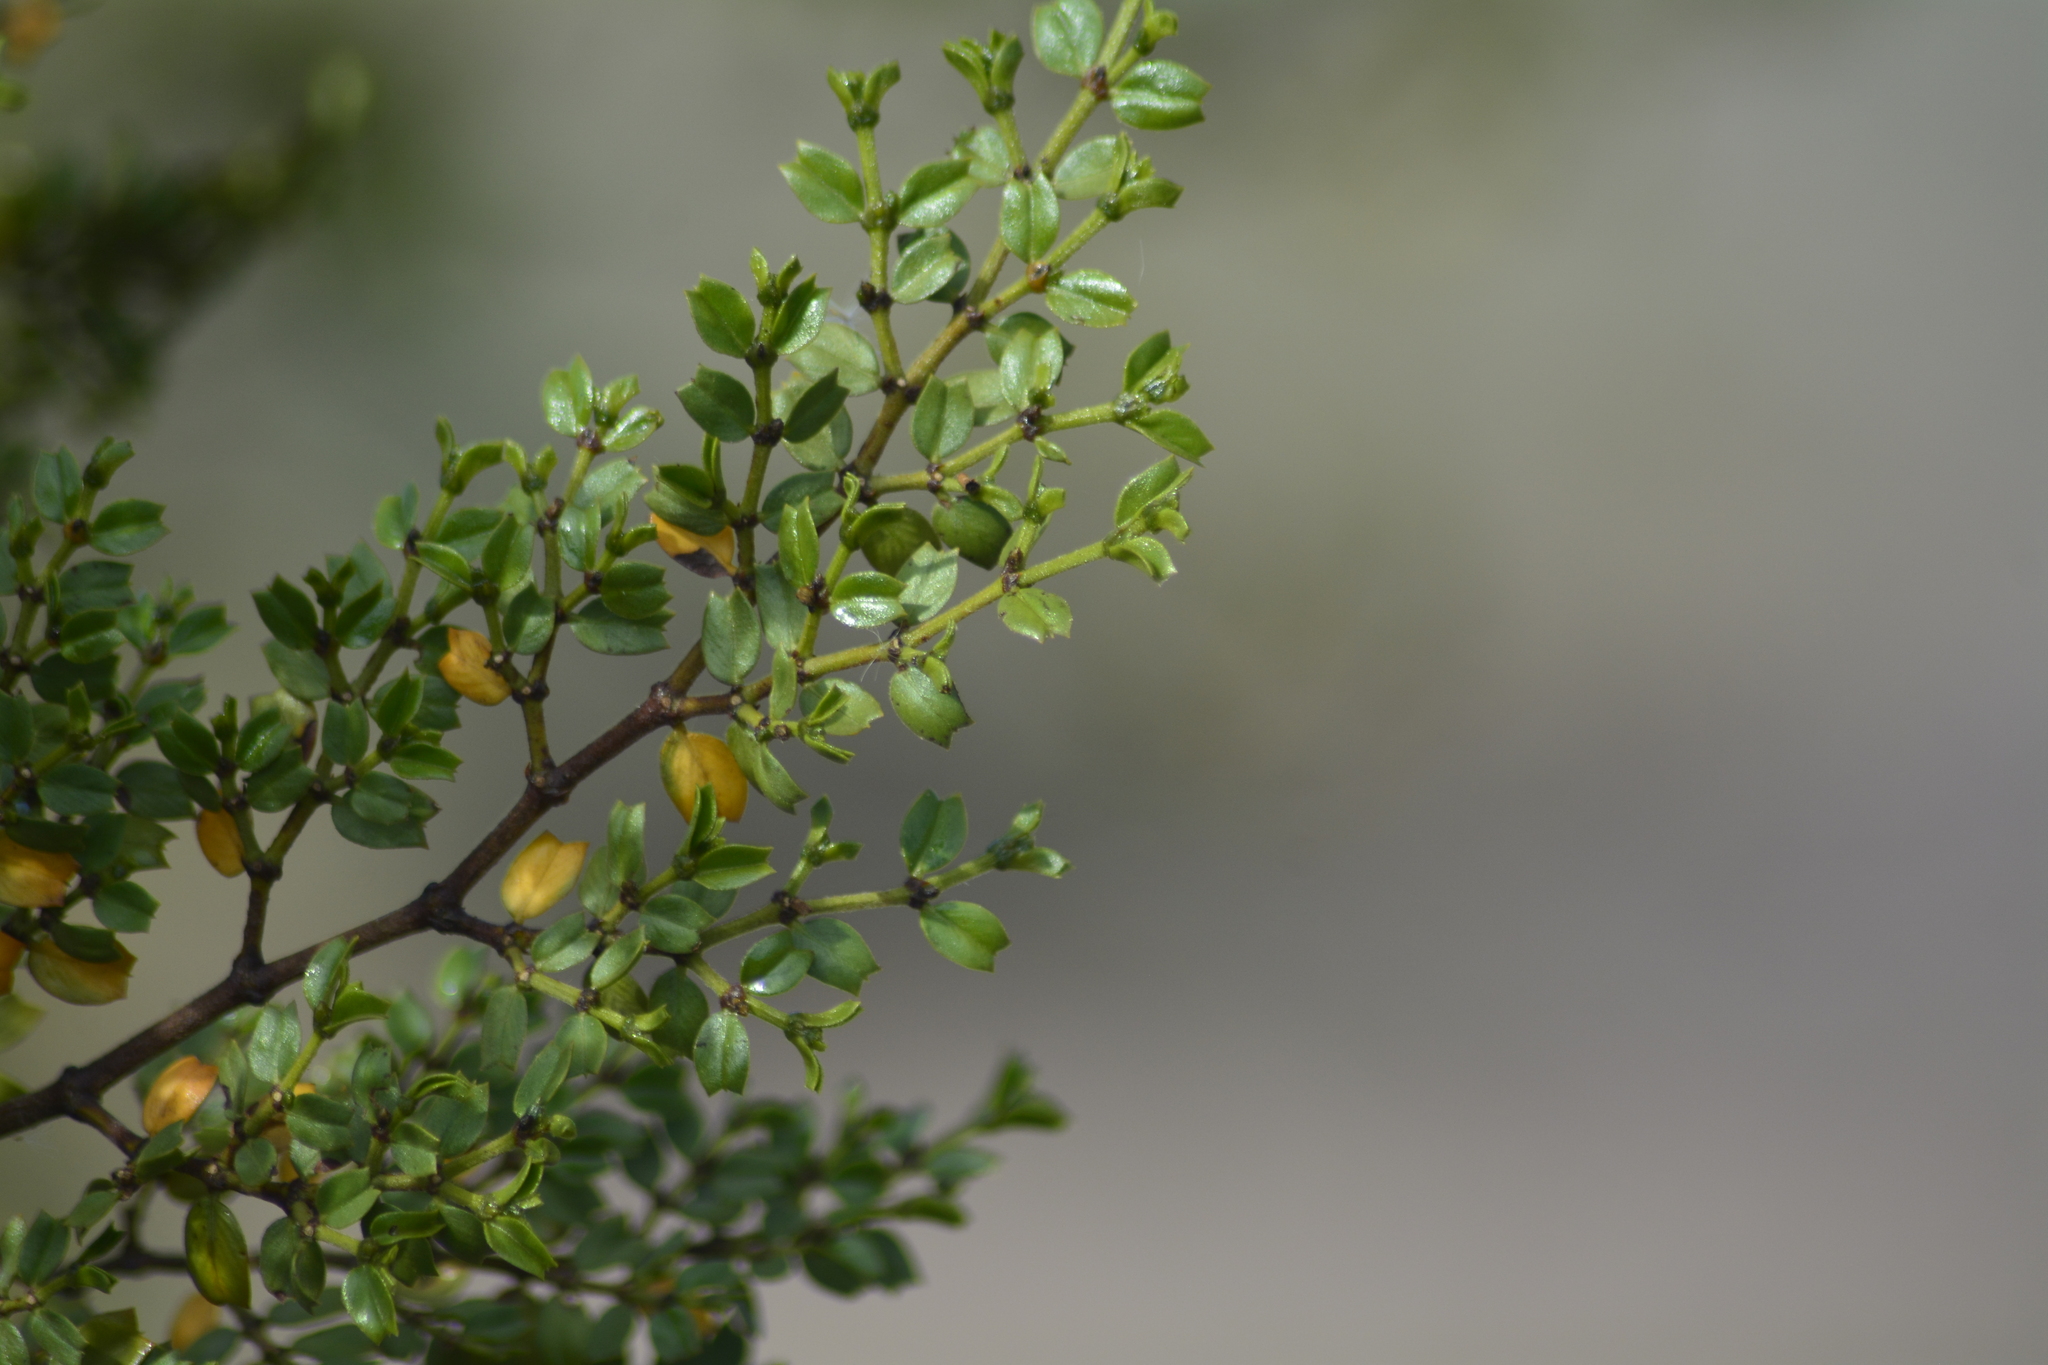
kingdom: Plantae
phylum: Tracheophyta
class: Magnoliopsida
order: Zygophyllales
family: Zygophyllaceae
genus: Larrea
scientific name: Larrea cuneifolia
